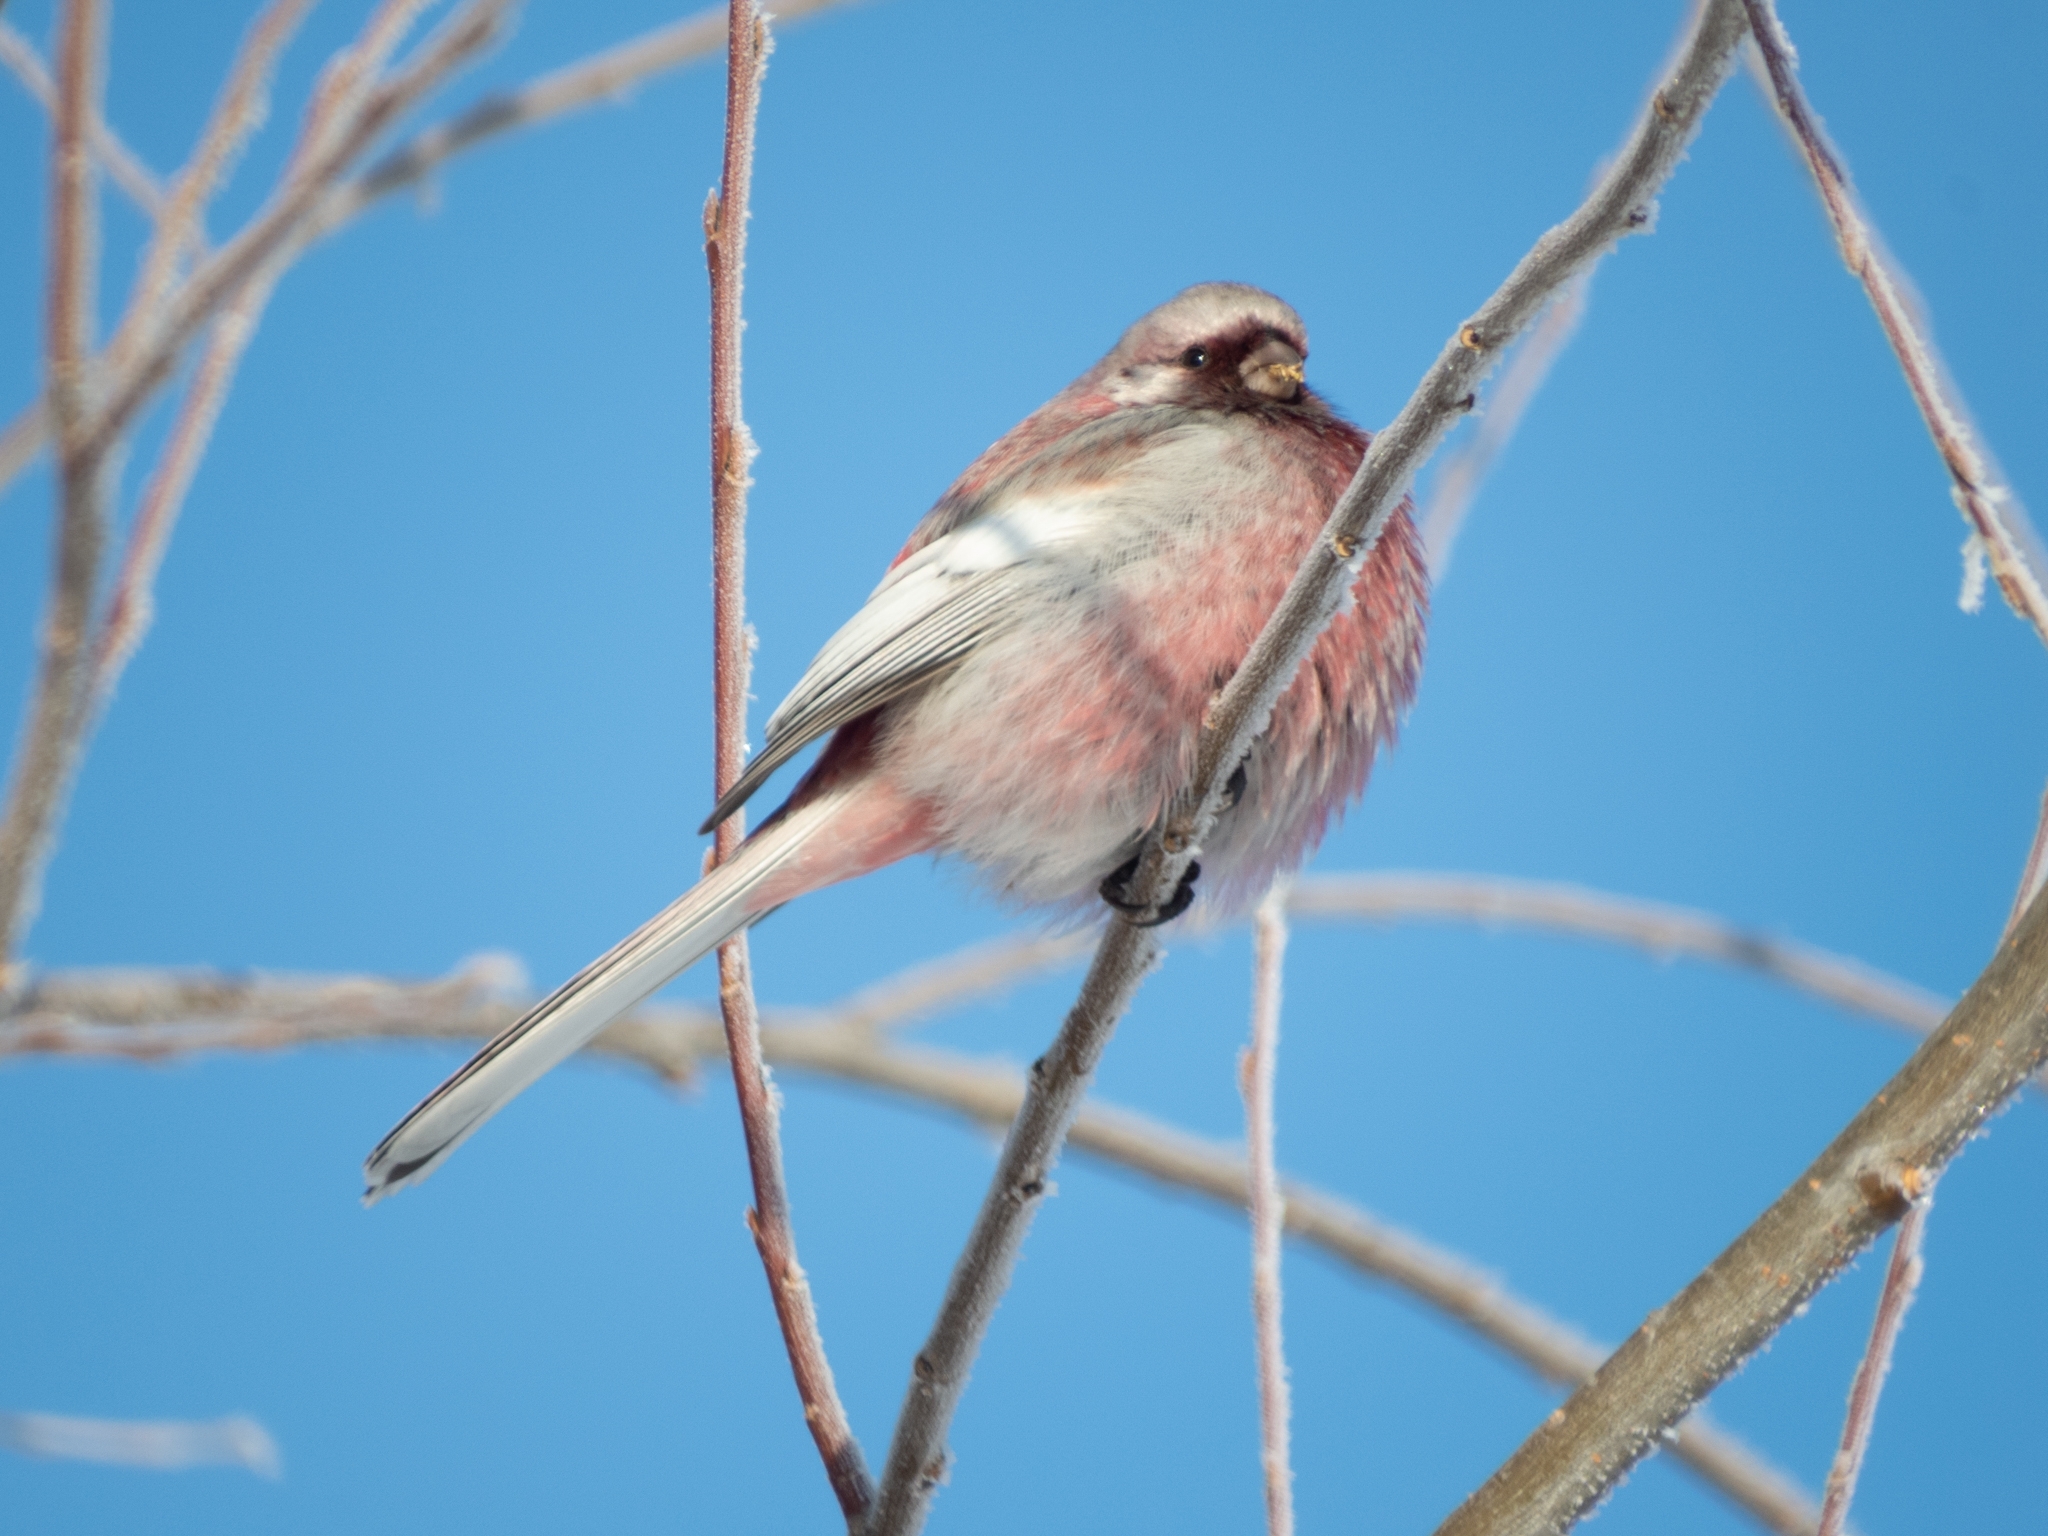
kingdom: Animalia
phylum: Chordata
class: Aves
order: Passeriformes
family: Fringillidae
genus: Carpodacus
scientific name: Carpodacus sibiricus
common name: Long-tailed rosefinch
